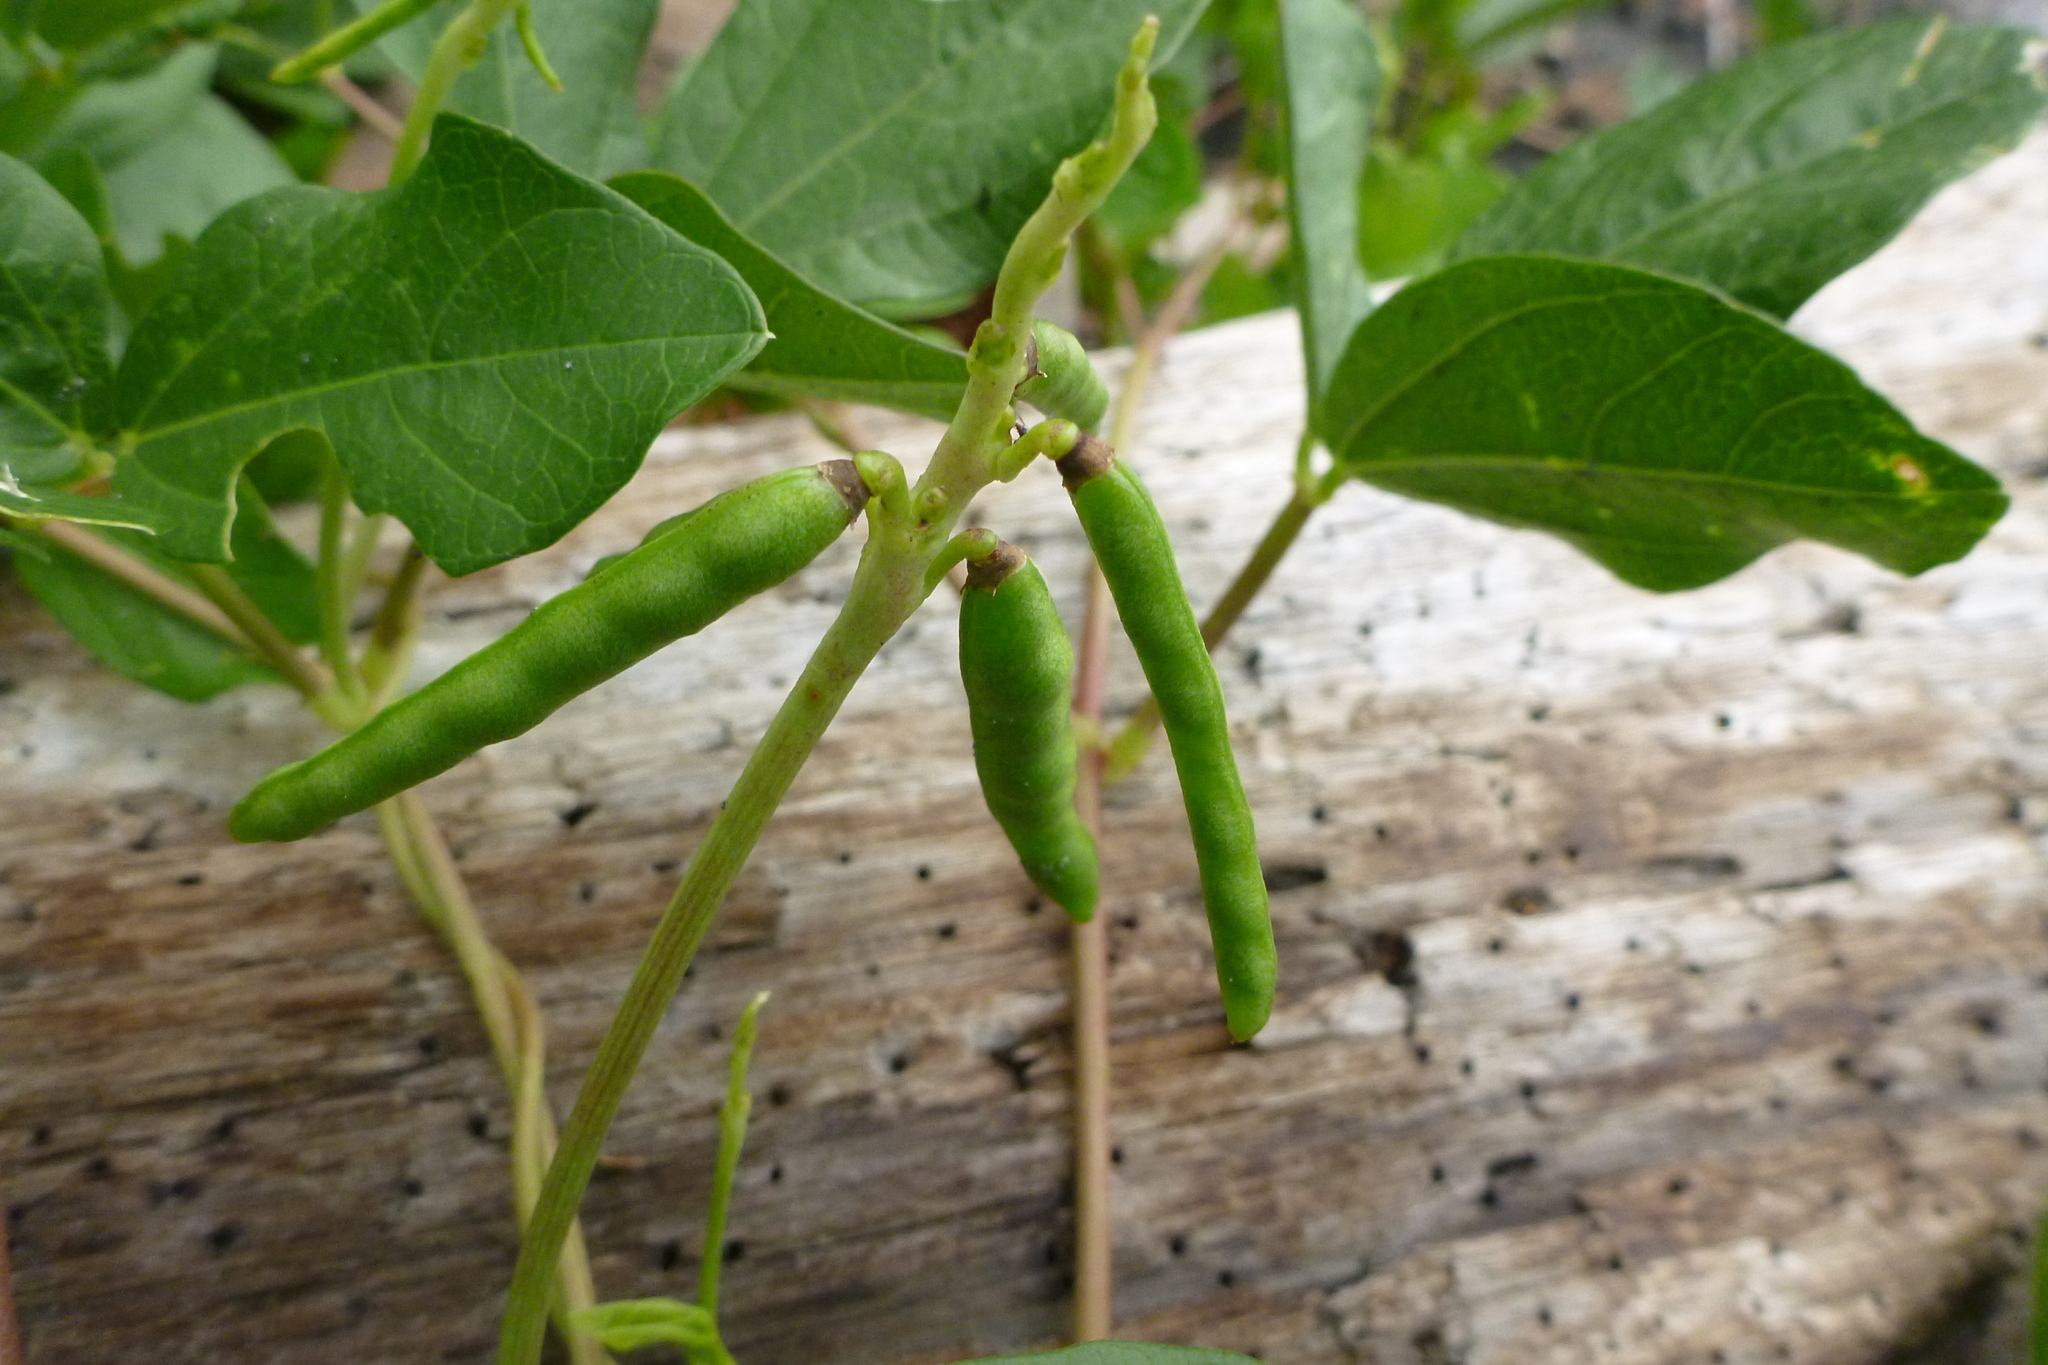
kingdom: Plantae
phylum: Tracheophyta
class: Magnoliopsida
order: Fabales
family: Fabaceae
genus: Vigna
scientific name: Vigna marina
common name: Dune-bean
